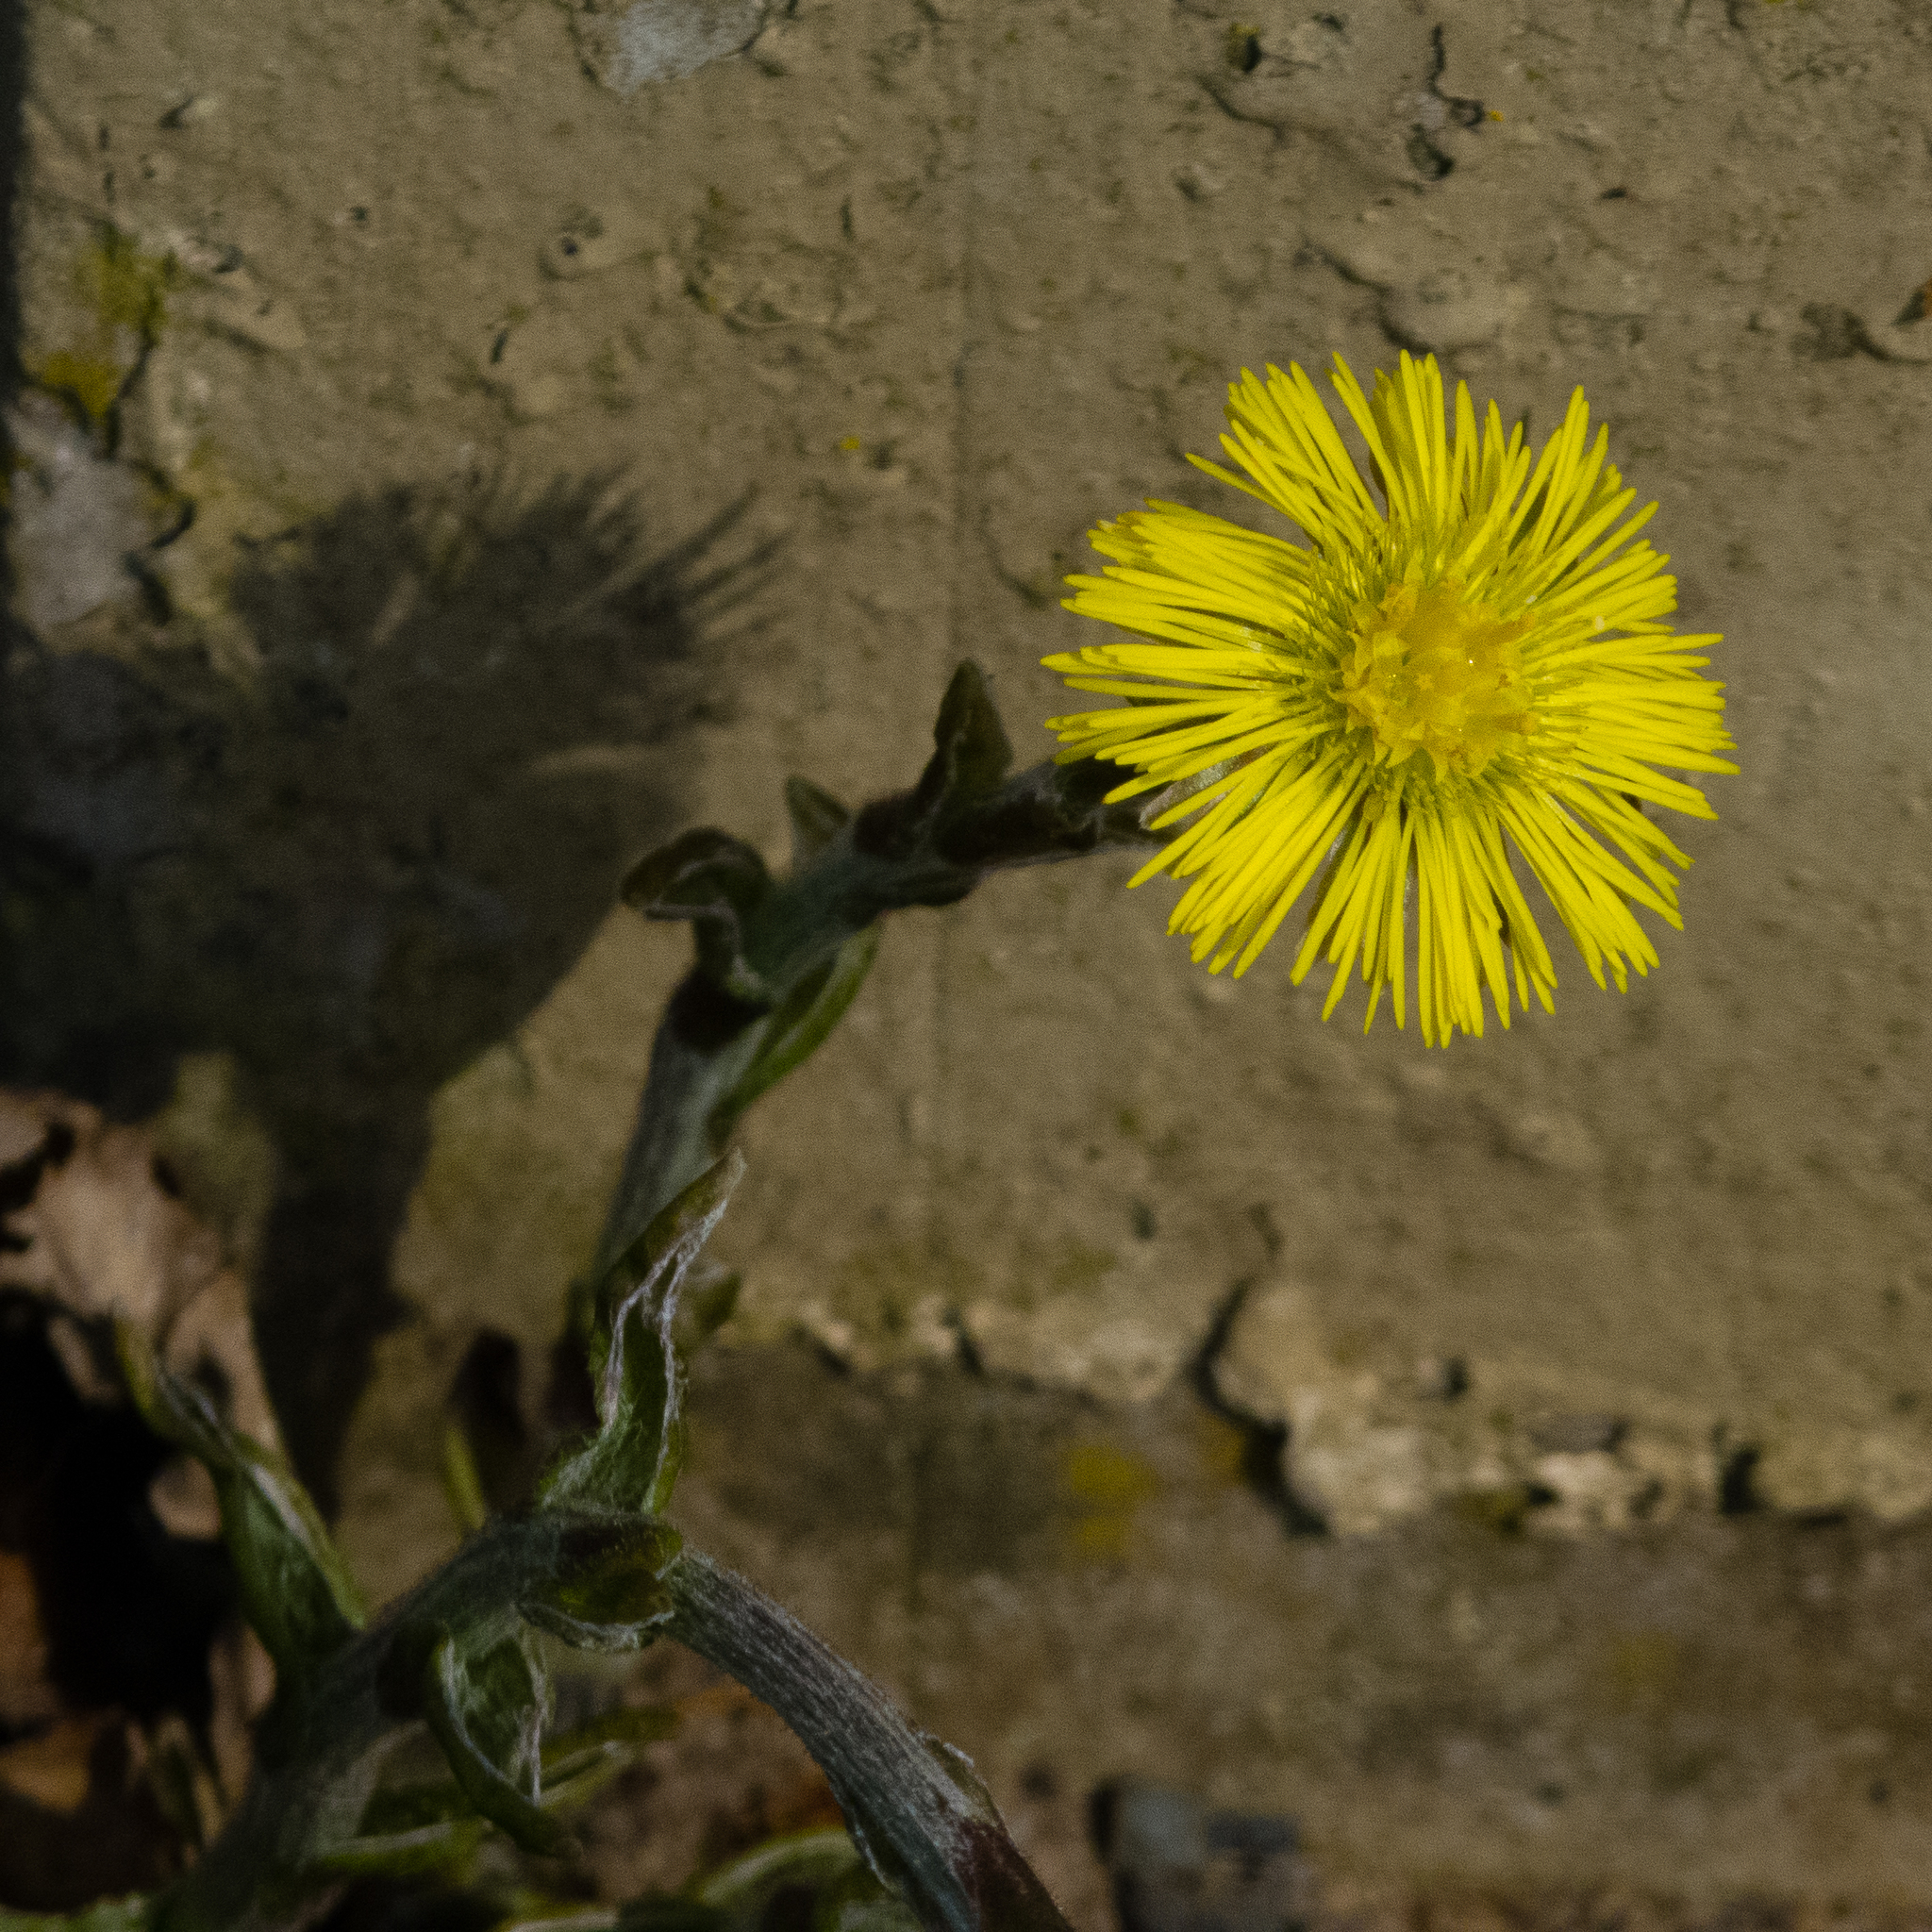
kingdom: Plantae
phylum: Tracheophyta
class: Magnoliopsida
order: Asterales
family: Asteraceae
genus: Tussilago
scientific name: Tussilago farfara
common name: Coltsfoot
